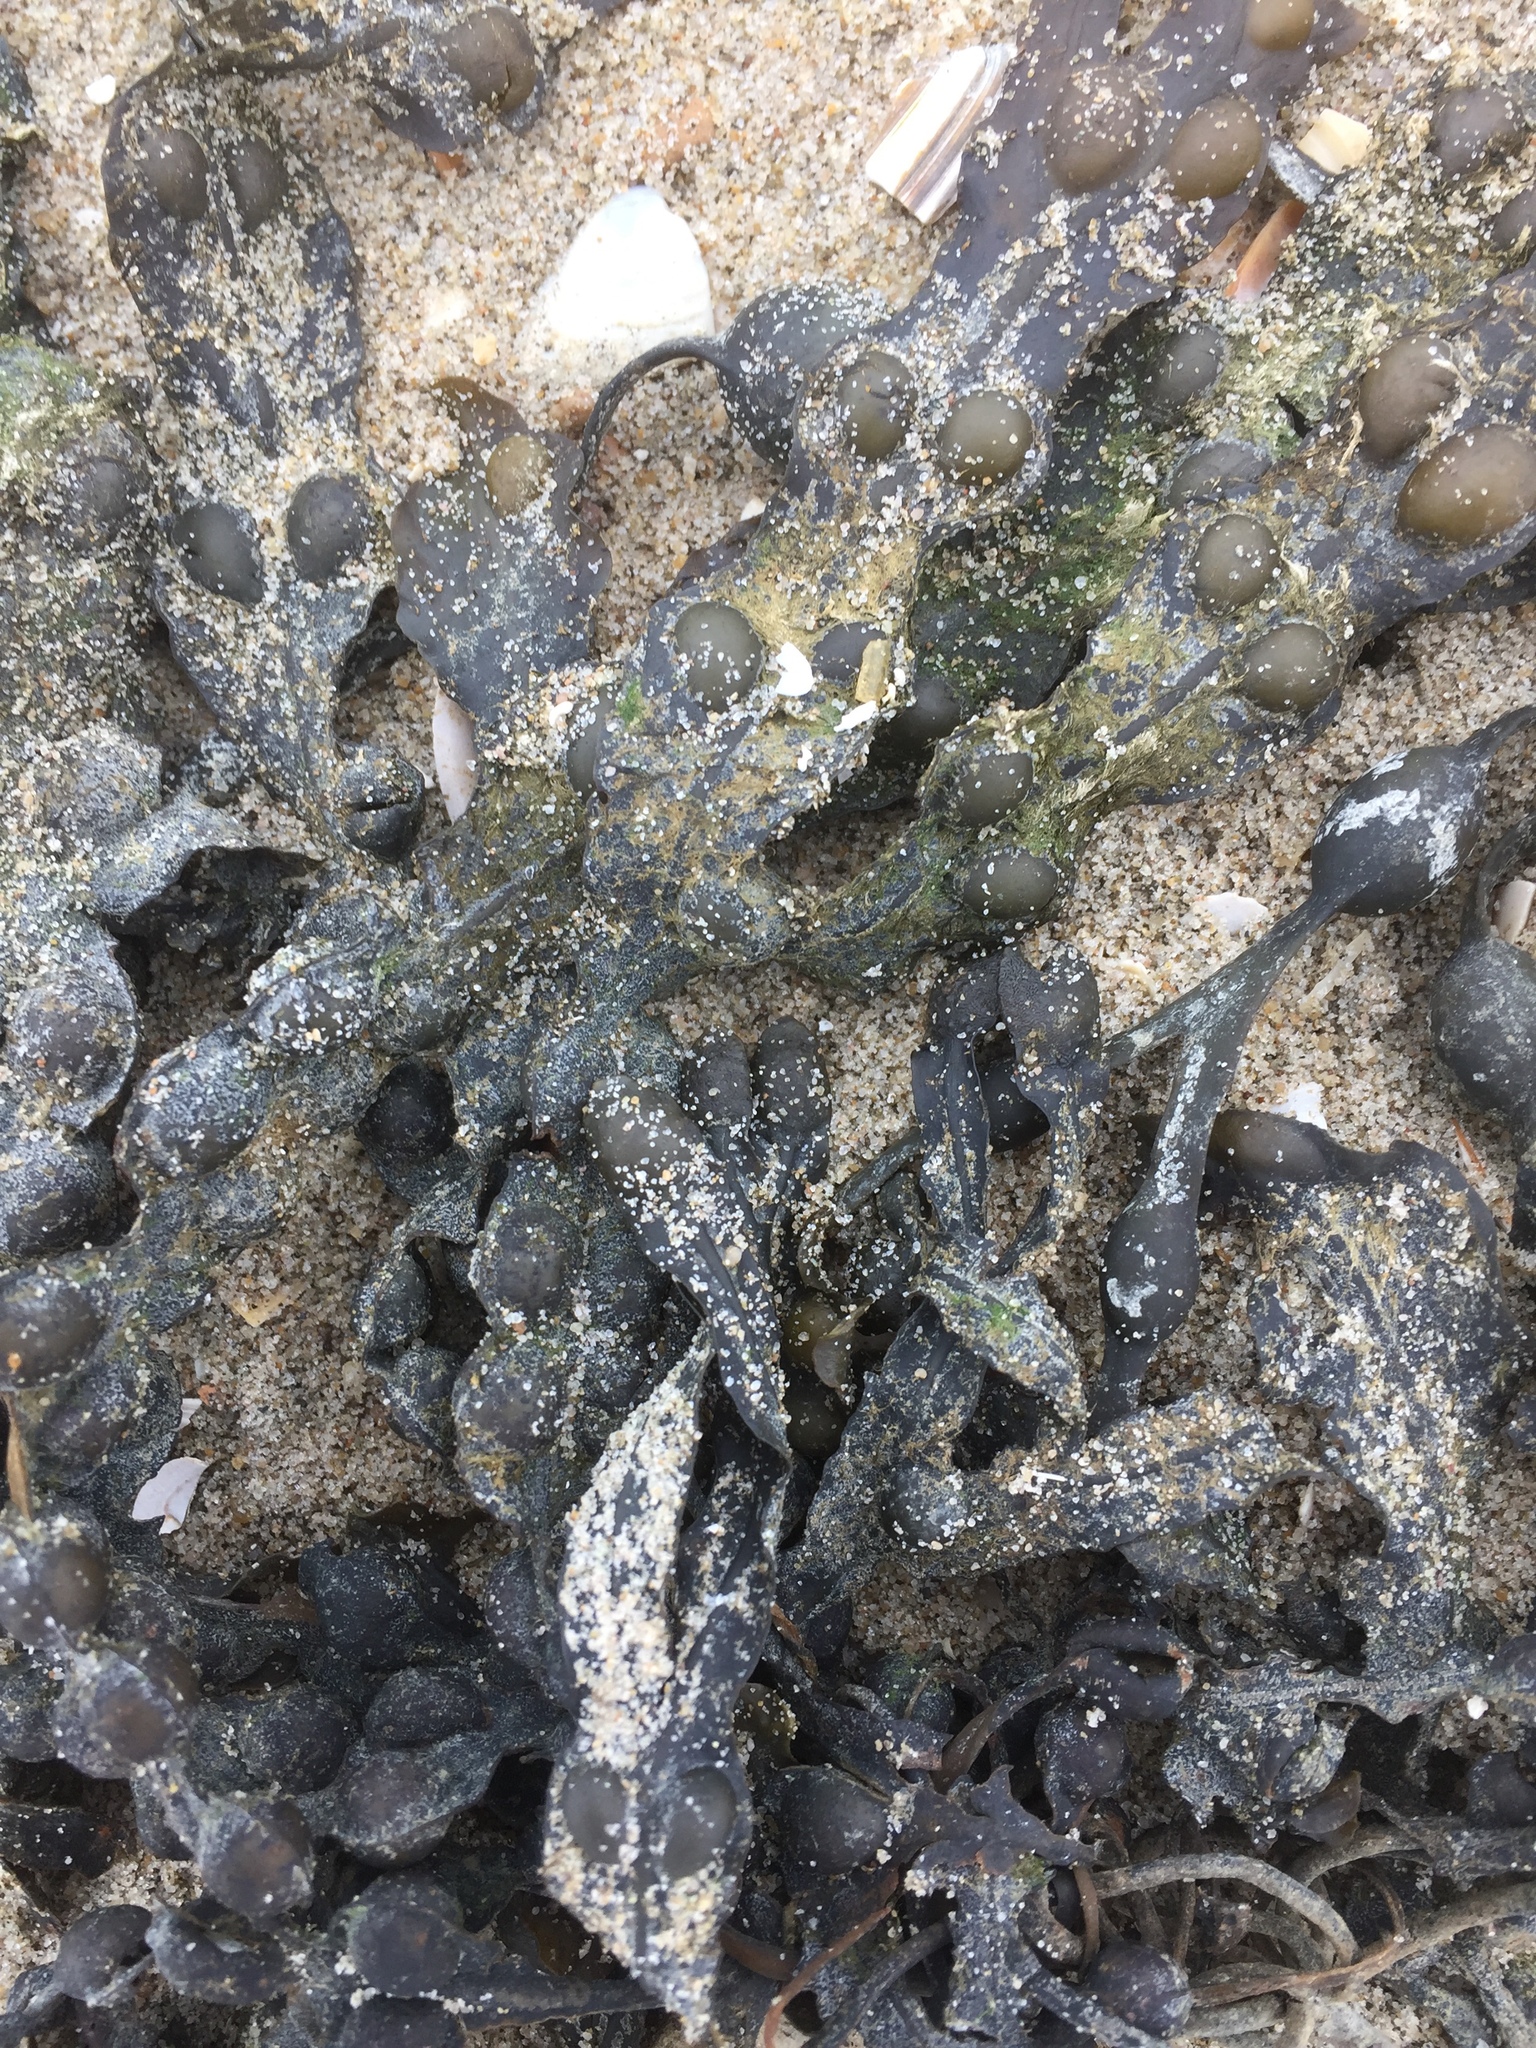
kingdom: Chromista
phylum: Ochrophyta
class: Phaeophyceae
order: Fucales
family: Fucaceae
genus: Fucus
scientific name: Fucus vesiculosus
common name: Bladder wrack
